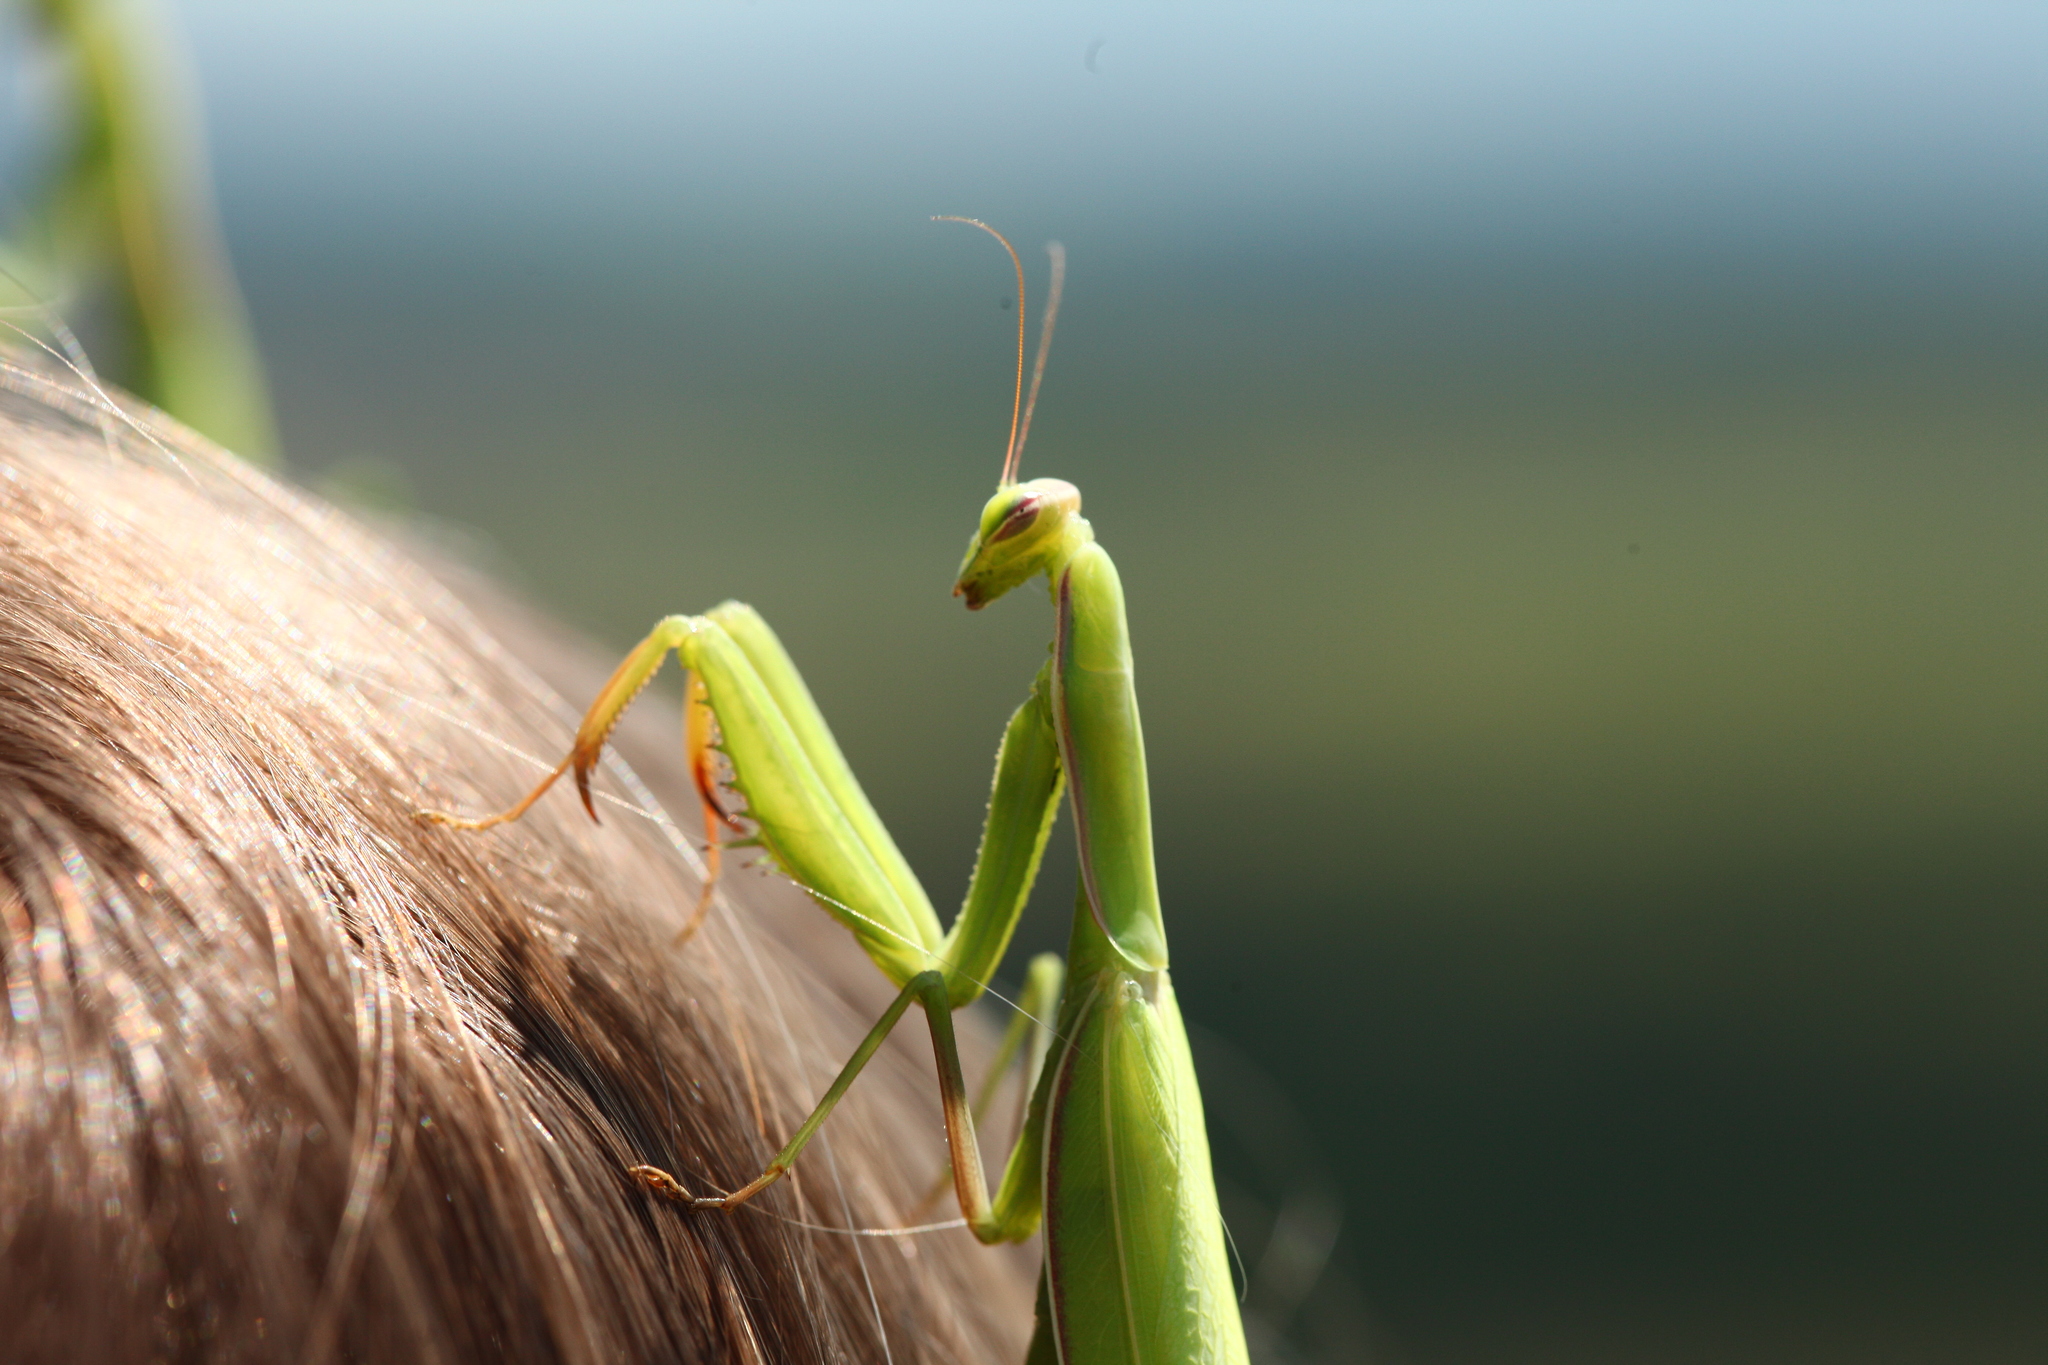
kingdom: Animalia
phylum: Arthropoda
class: Insecta
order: Mantodea
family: Mantidae
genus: Mantis
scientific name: Mantis religiosa
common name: Praying mantis
